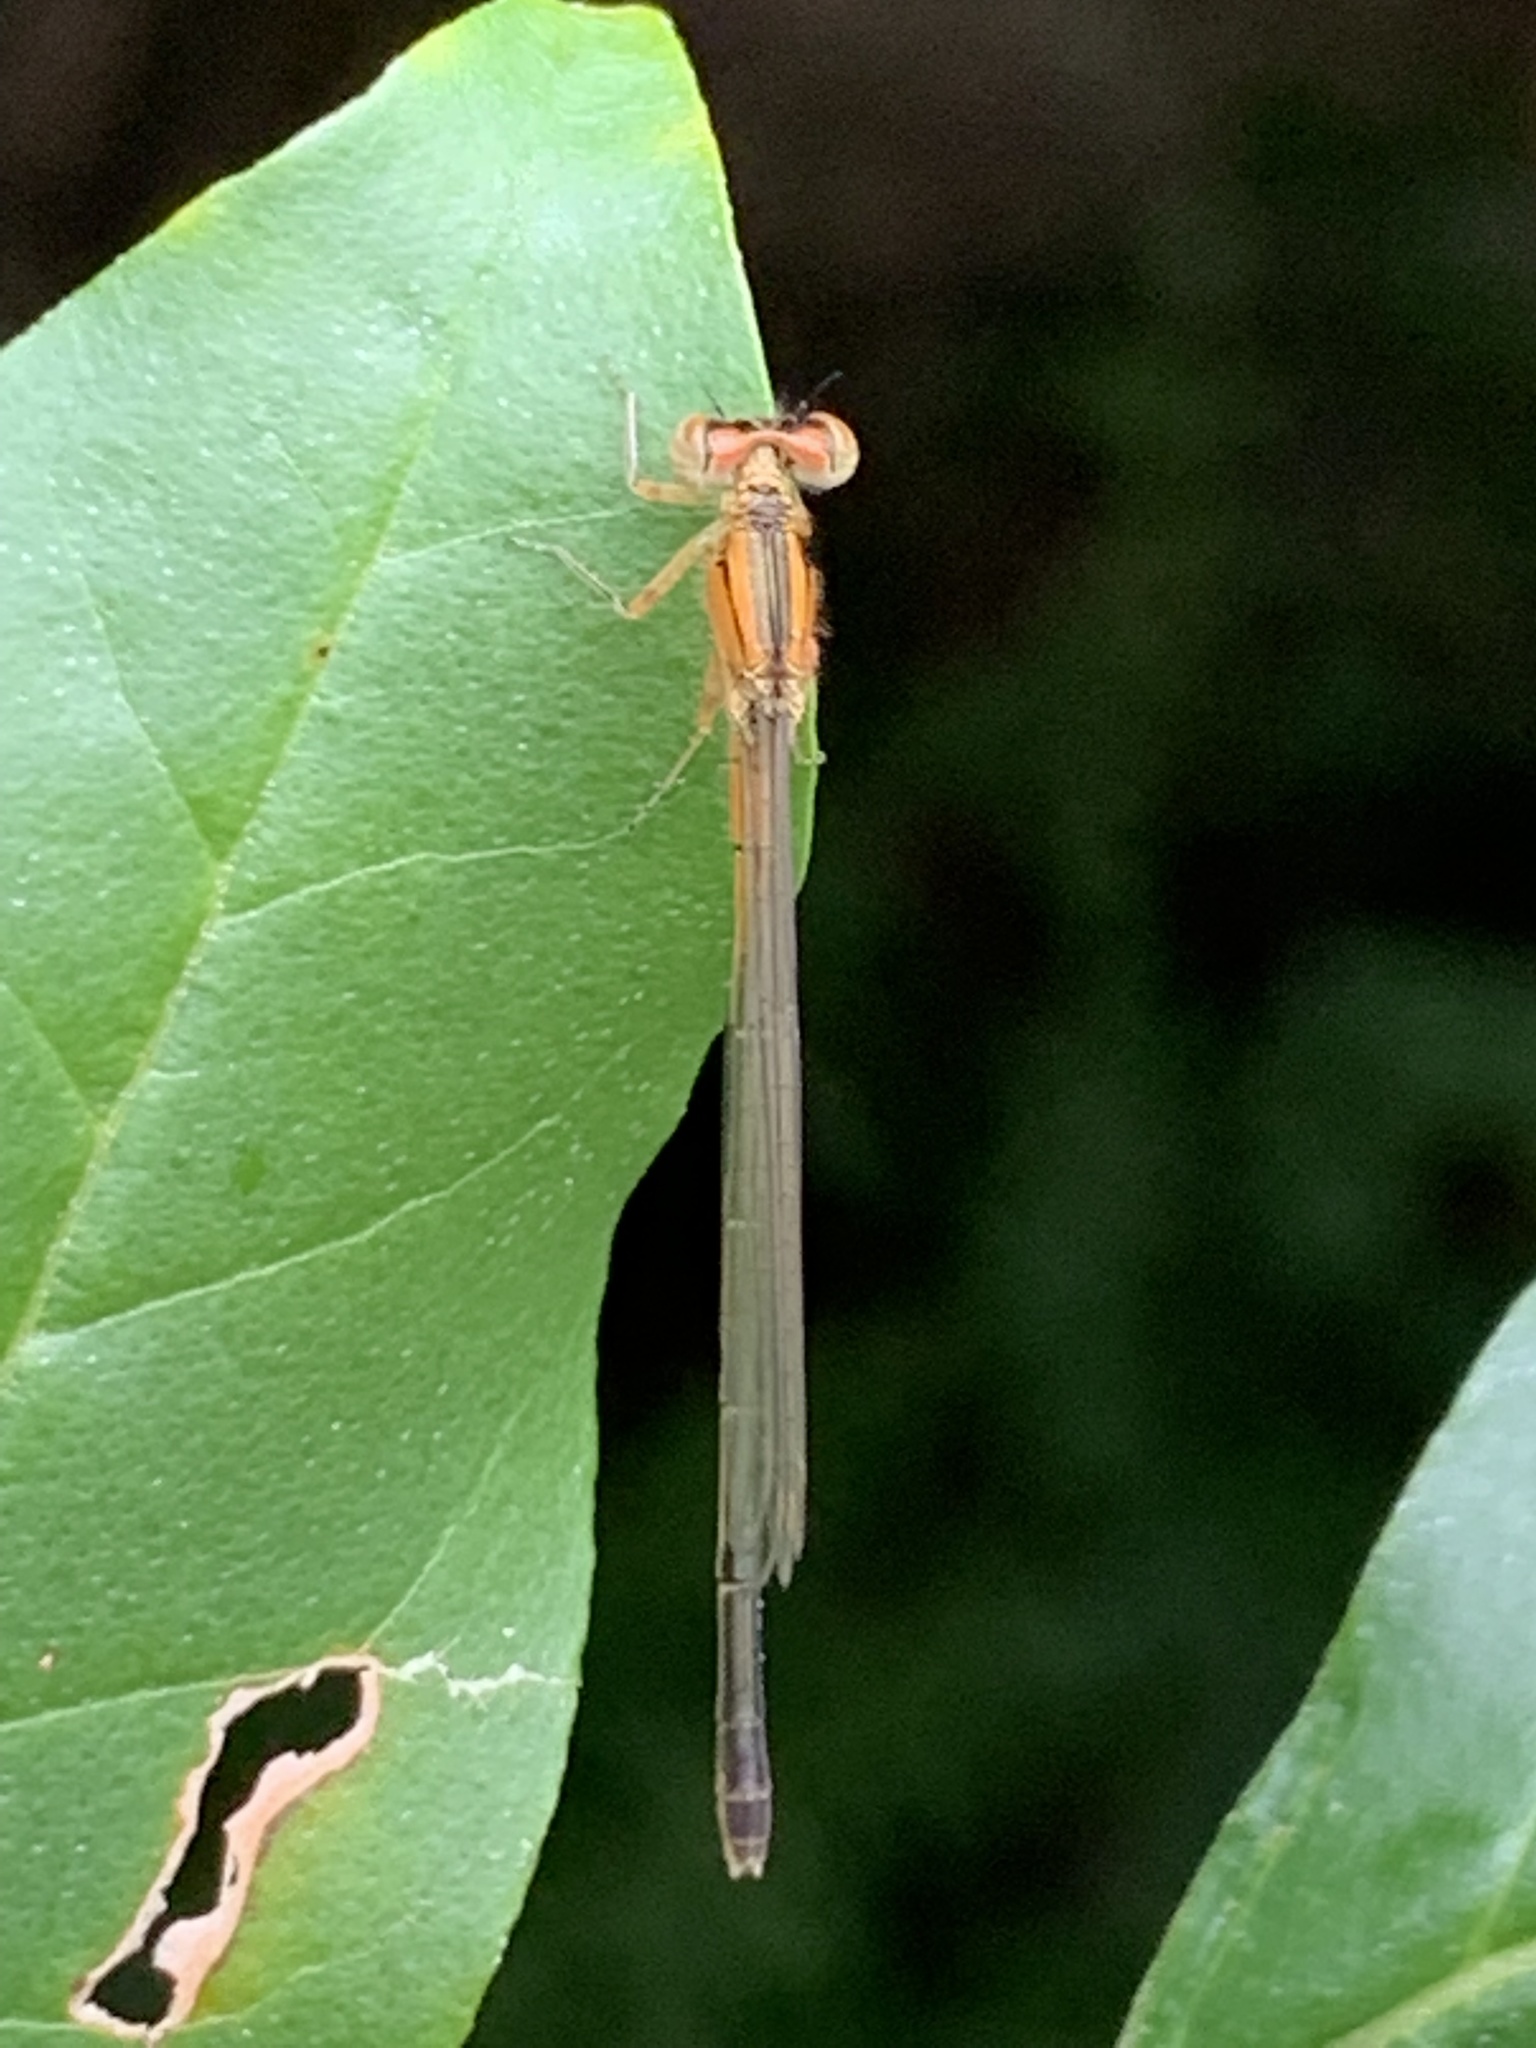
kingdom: Animalia
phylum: Arthropoda
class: Insecta
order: Odonata
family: Coenagrionidae
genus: Ischnura
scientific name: Ischnura verticalis
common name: Eastern forktail
